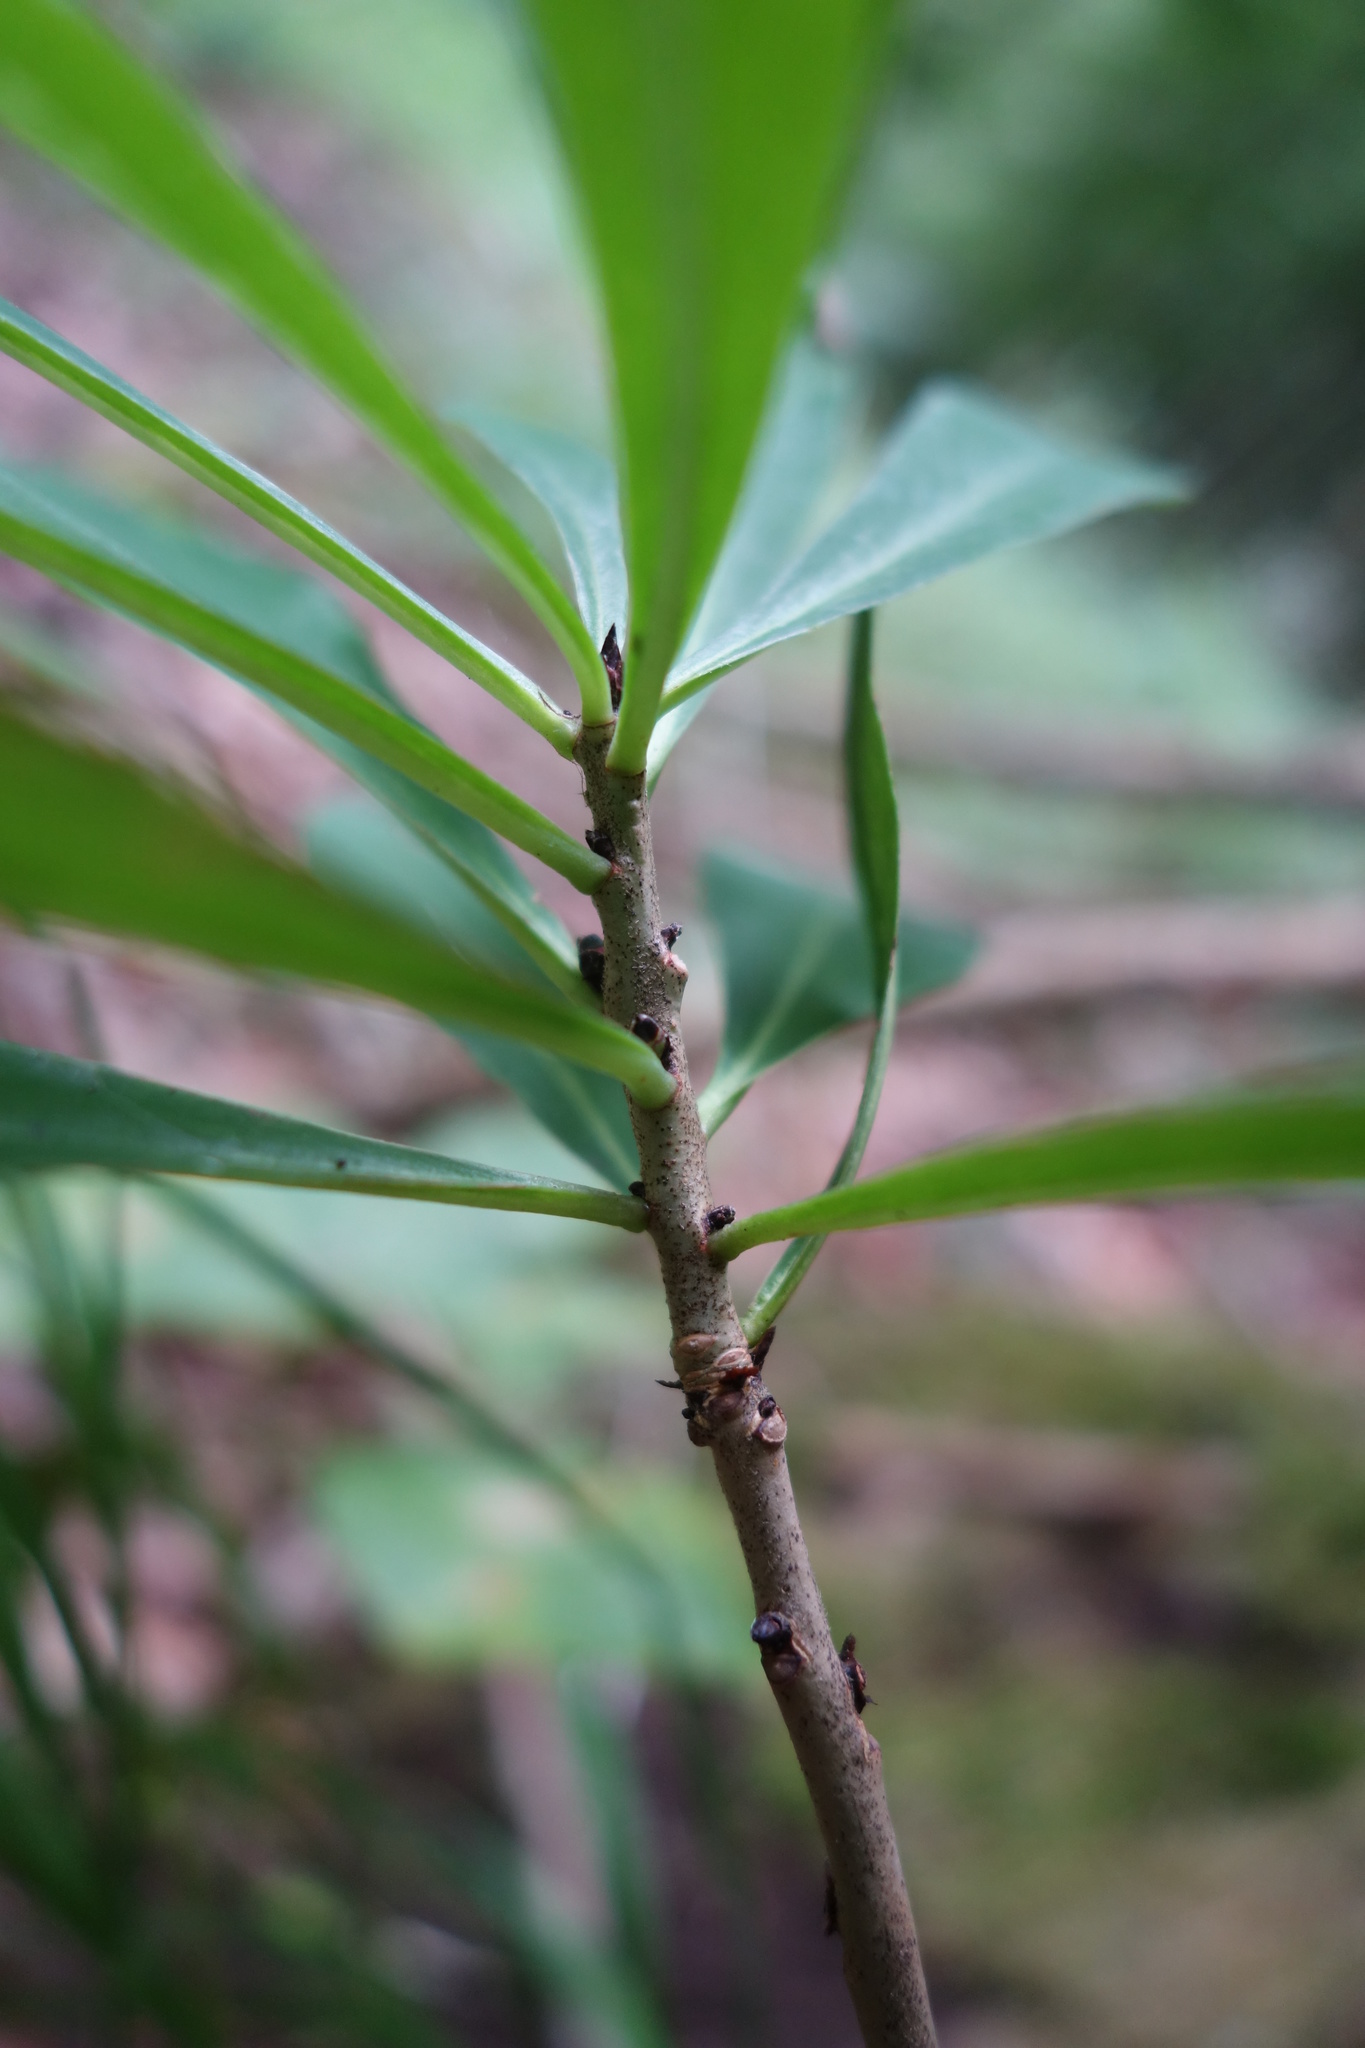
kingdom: Plantae
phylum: Tracheophyta
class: Magnoliopsida
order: Malvales
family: Thymelaeaceae
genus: Daphne
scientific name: Daphne mezereum
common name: Mezereon
